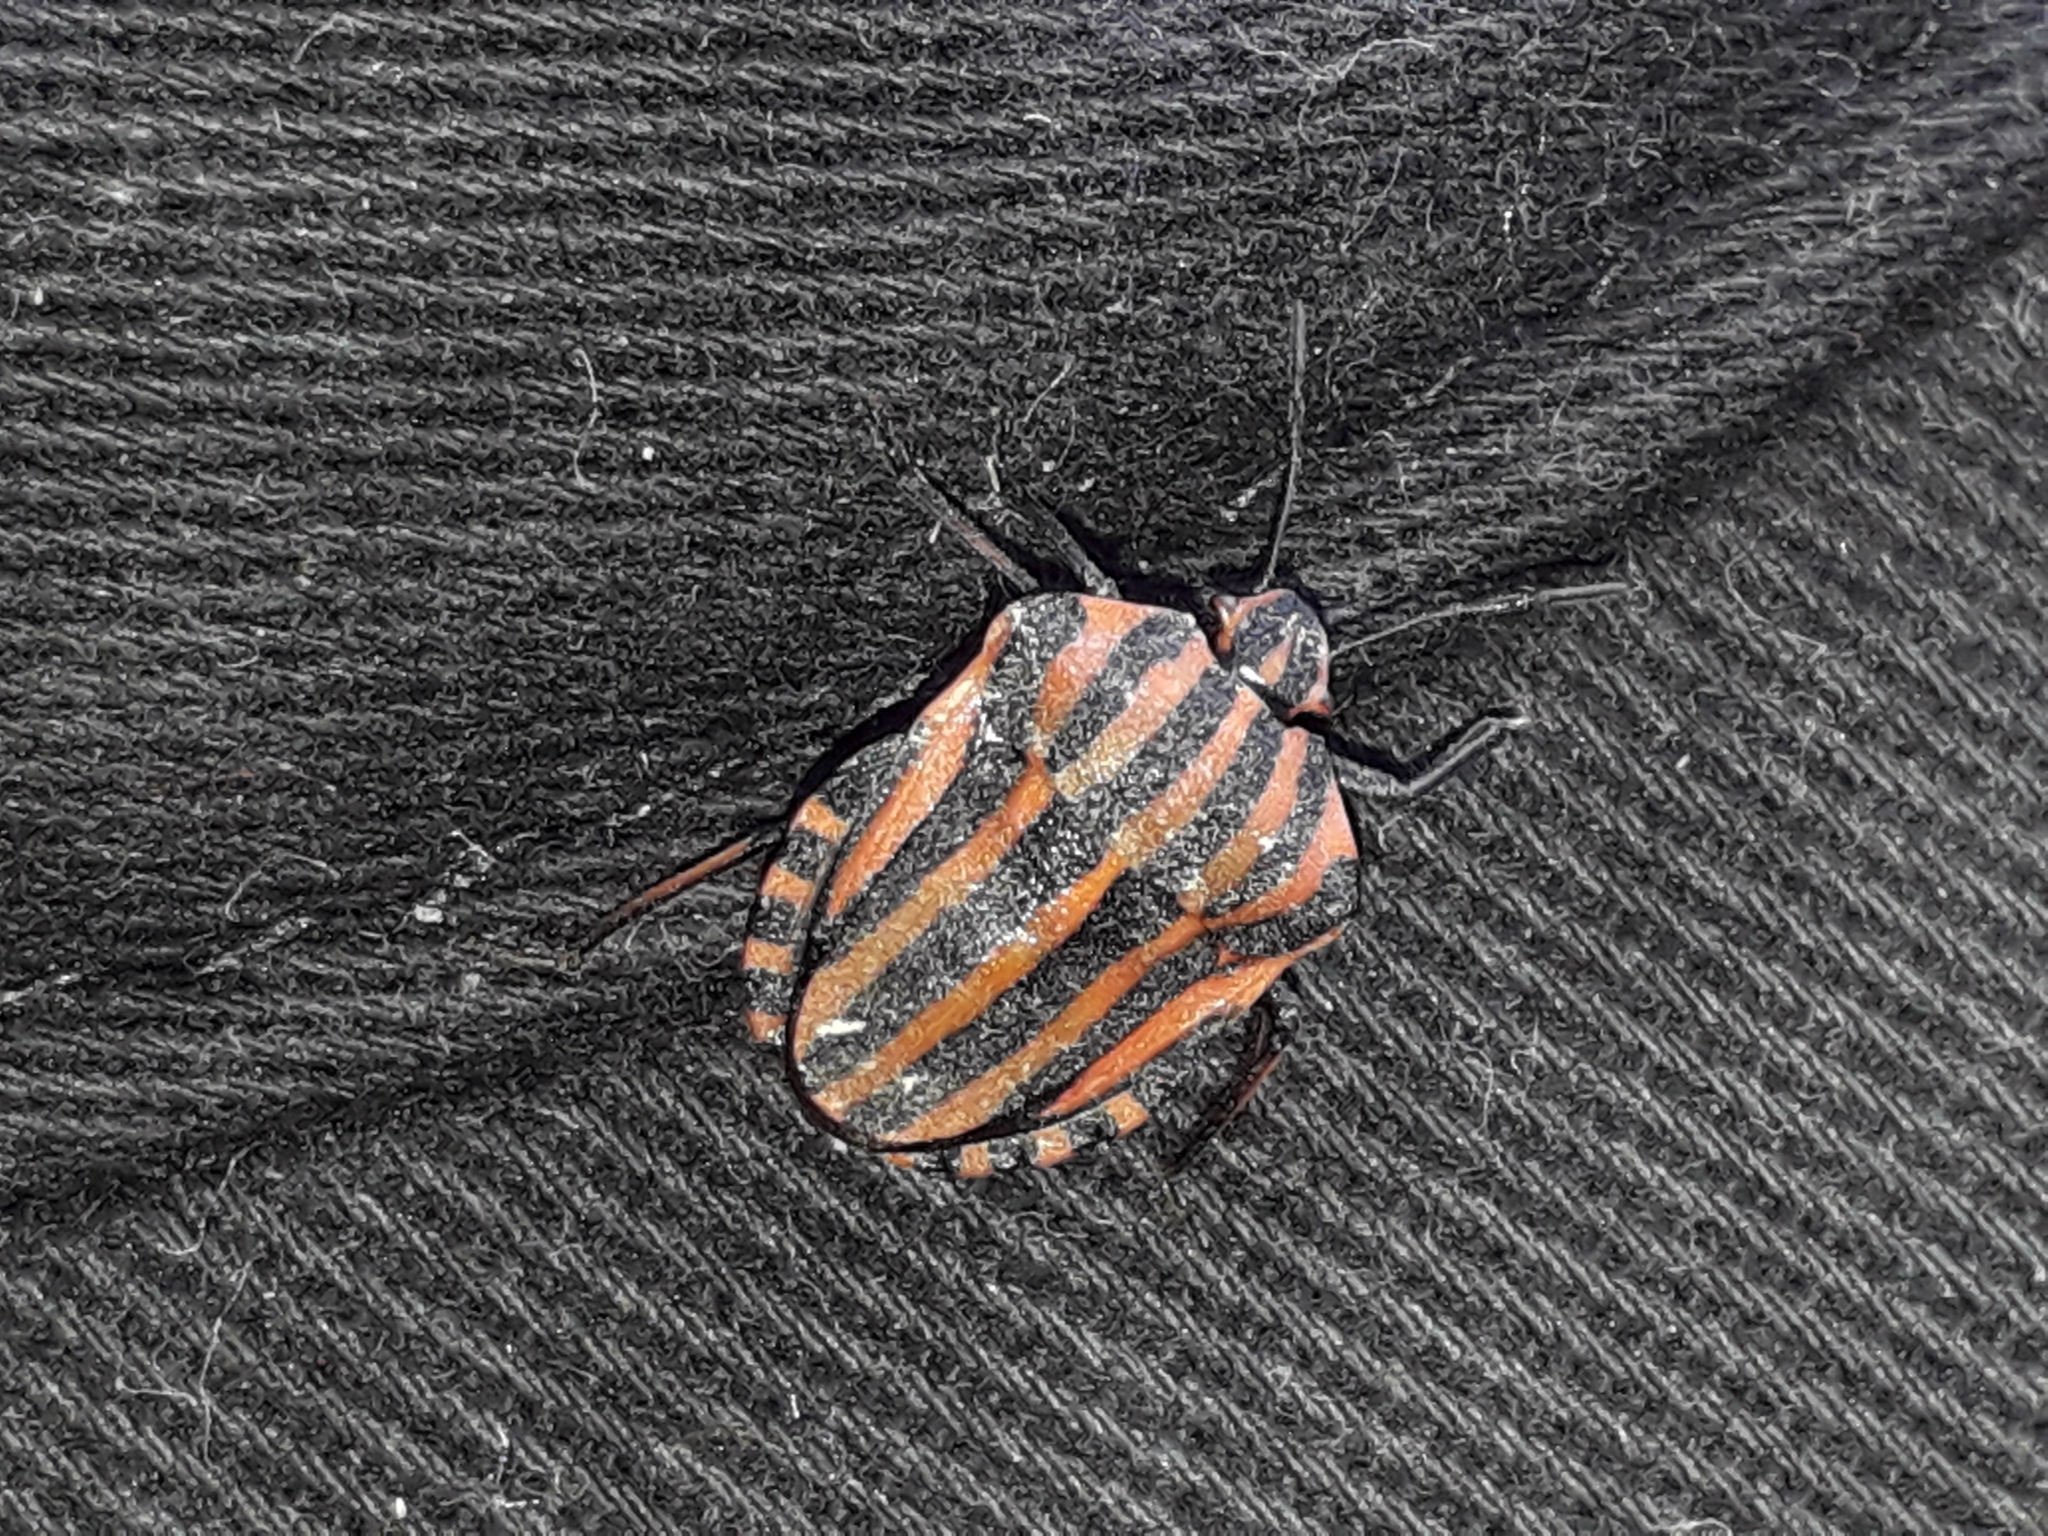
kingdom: Animalia
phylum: Arthropoda
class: Insecta
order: Hemiptera
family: Pentatomidae
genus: Graphosoma
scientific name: Graphosoma italicum
